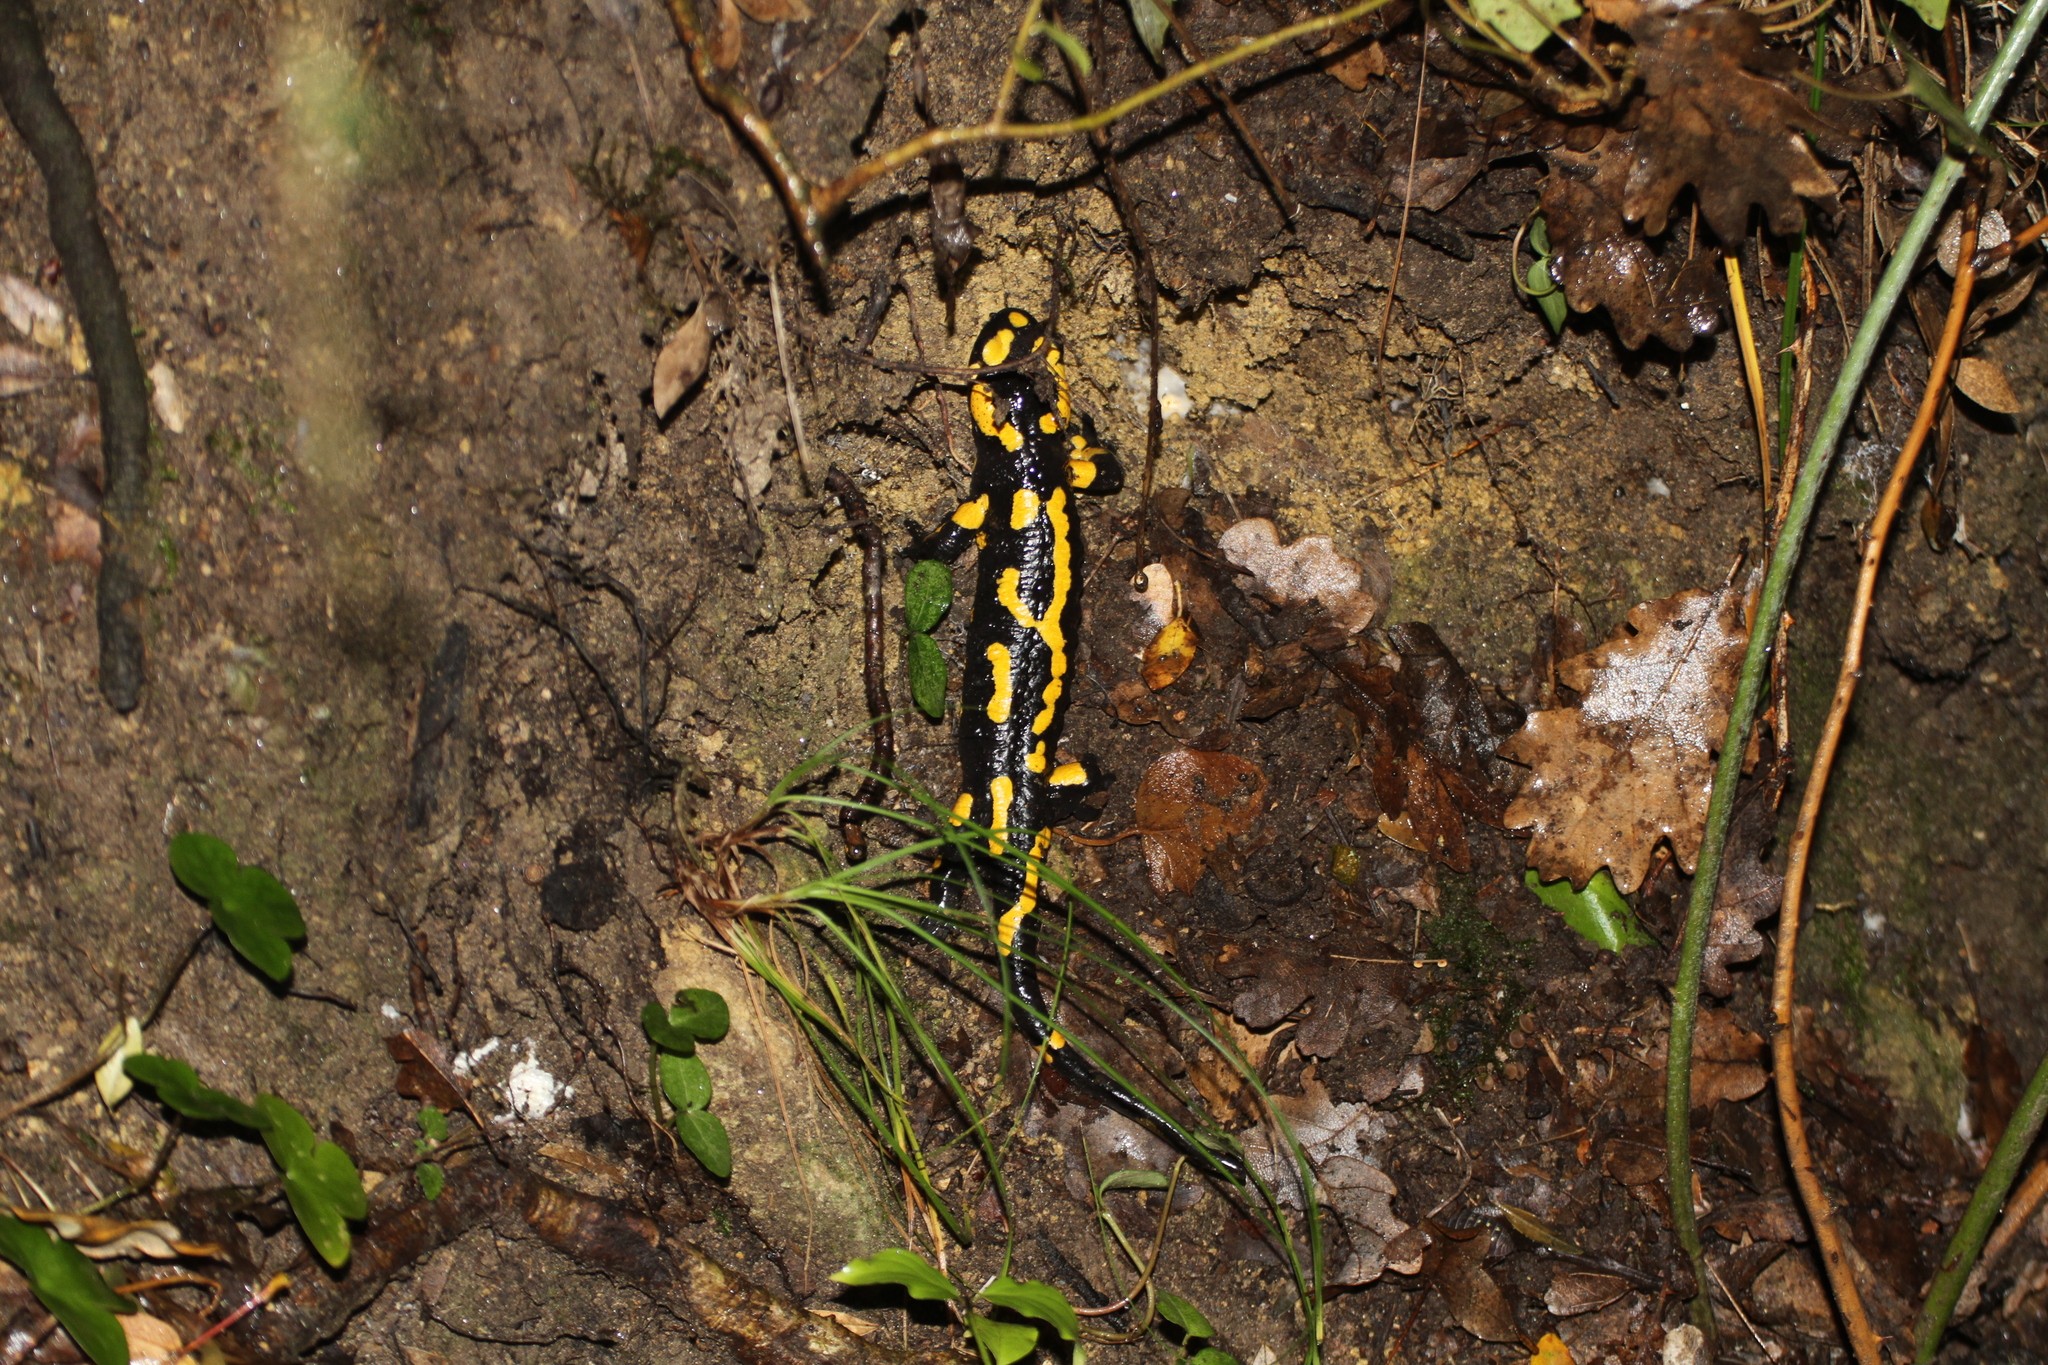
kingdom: Animalia
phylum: Chordata
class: Amphibia
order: Caudata
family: Salamandridae
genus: Salamandra
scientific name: Salamandra salamandra
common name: Fire salamander
